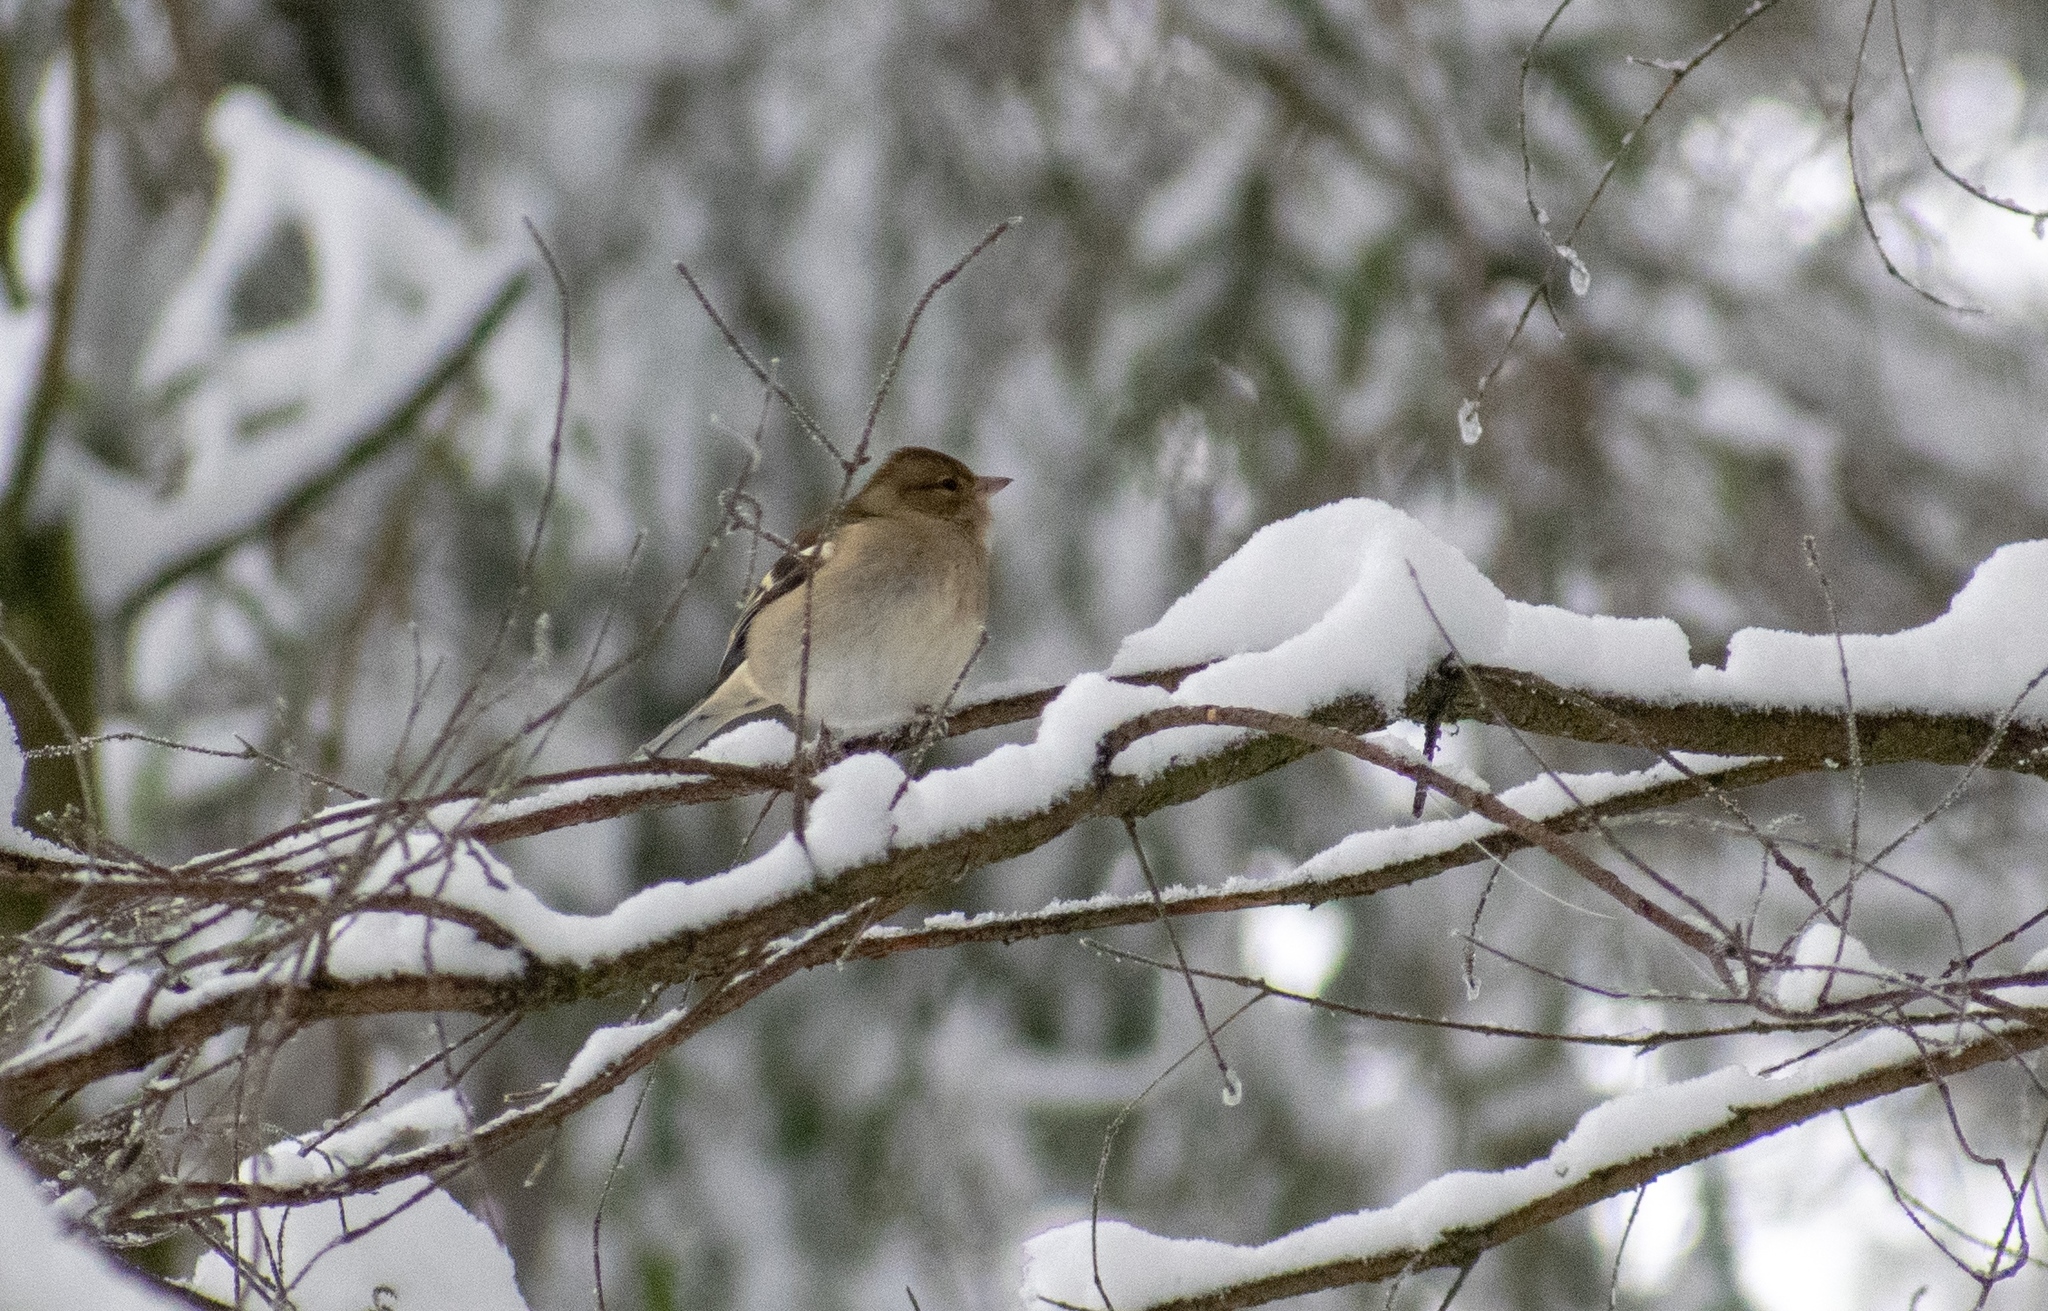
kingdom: Animalia
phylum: Chordata
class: Aves
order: Passeriformes
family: Fringillidae
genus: Fringilla
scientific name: Fringilla coelebs
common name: Common chaffinch
